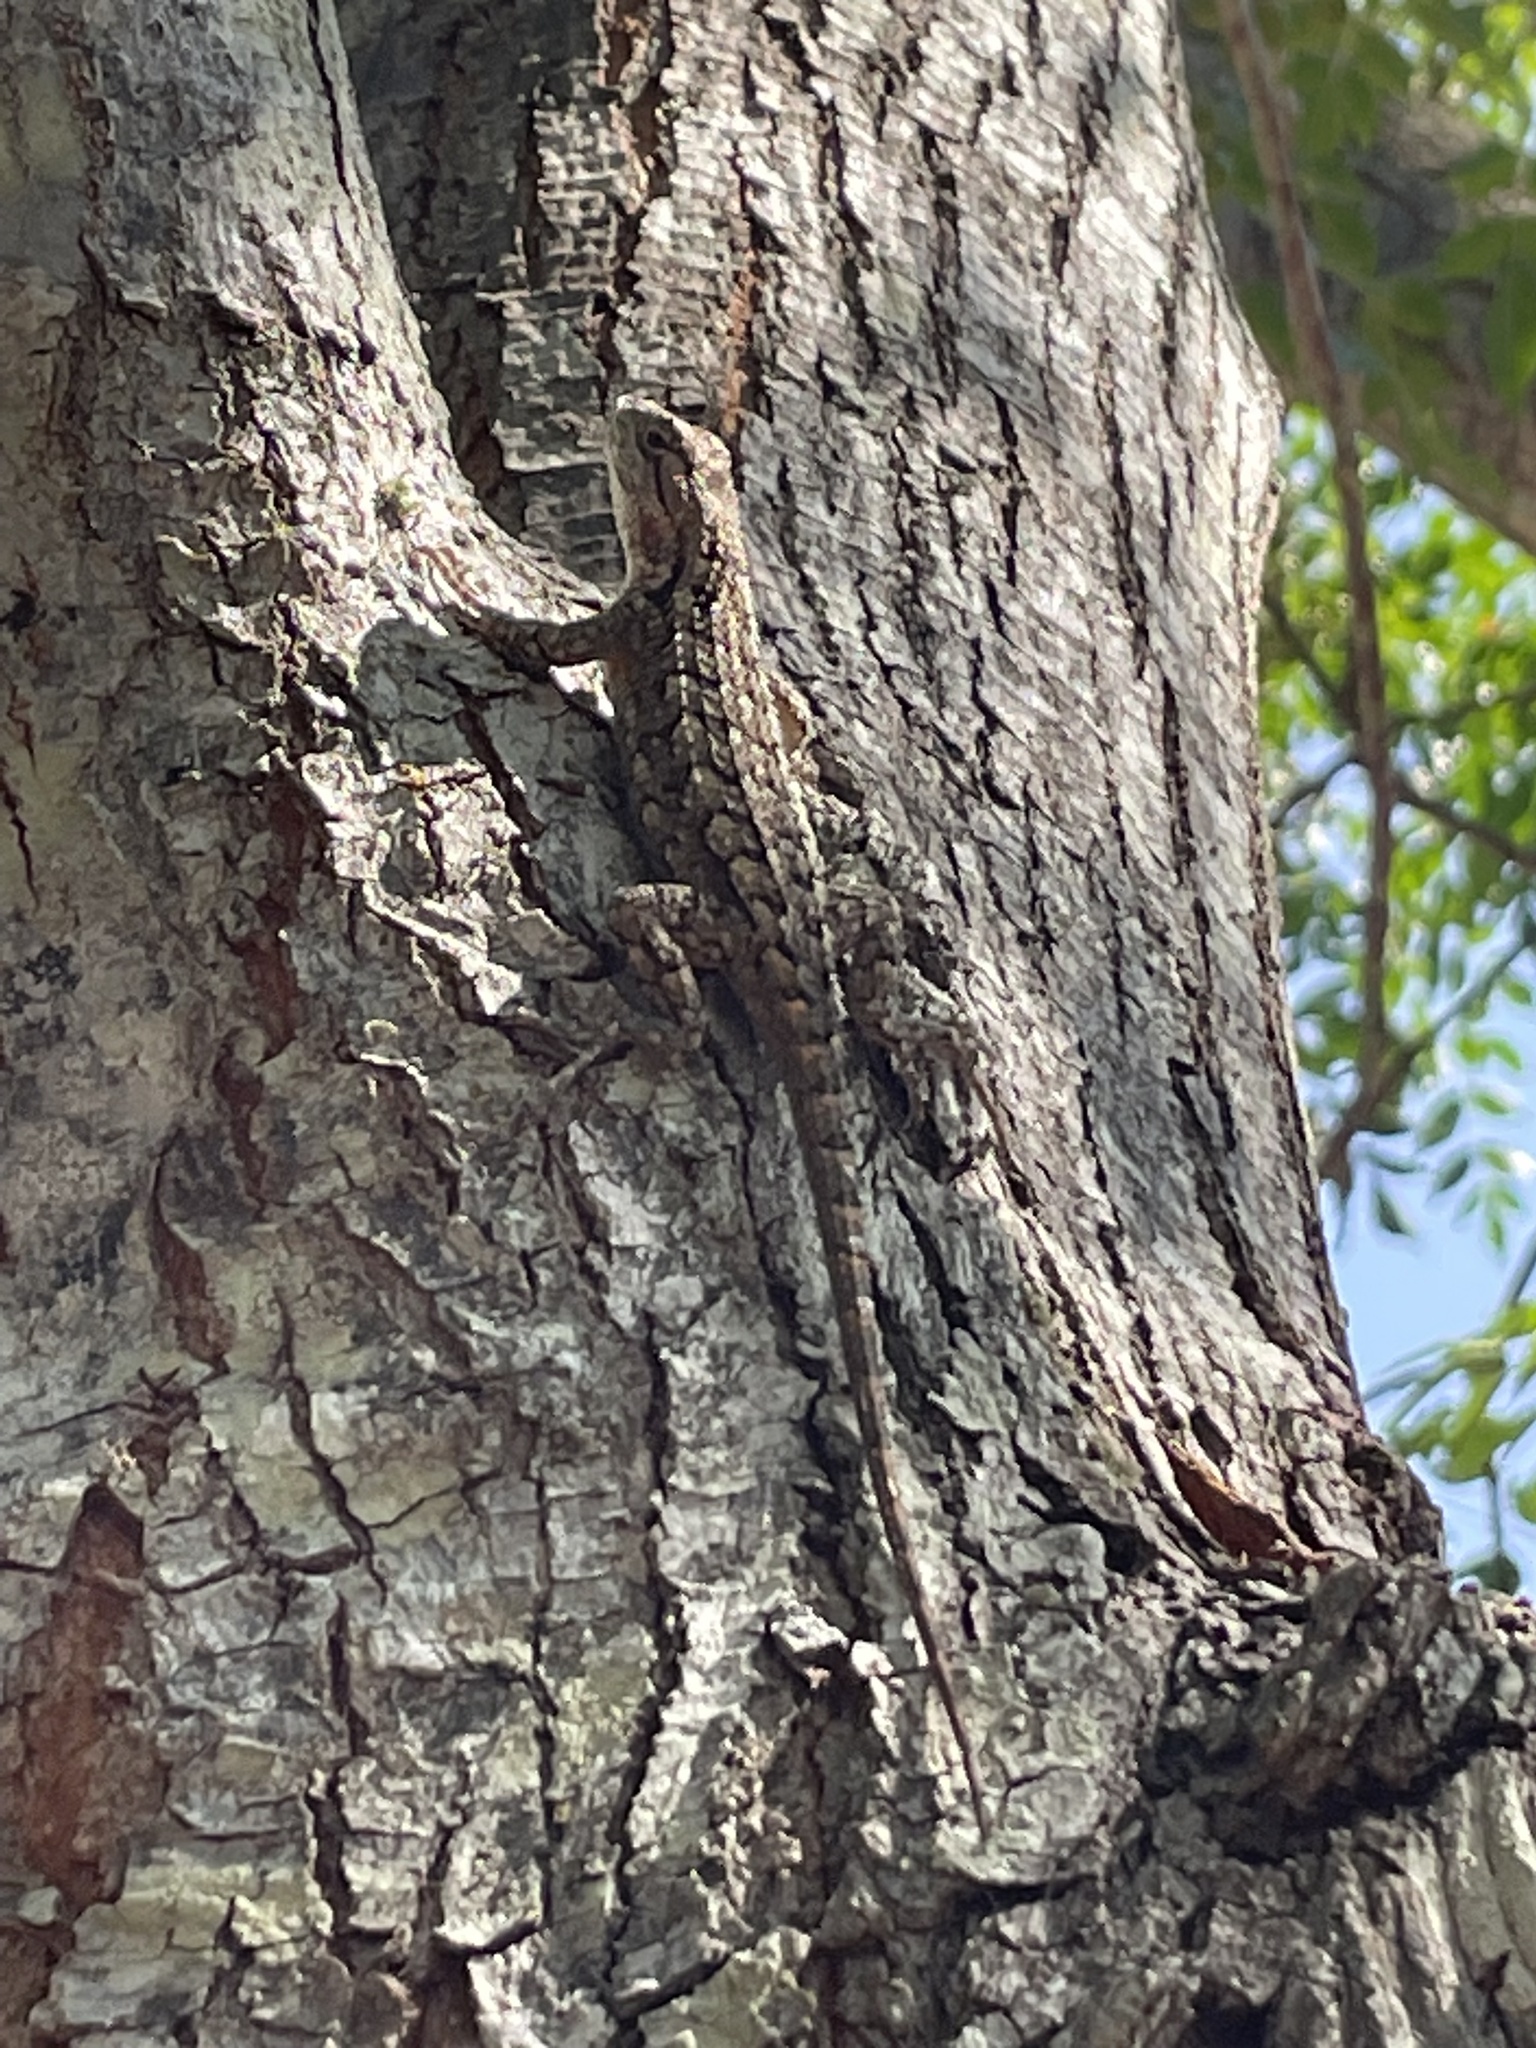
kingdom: Animalia
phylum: Chordata
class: Squamata
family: Phrynosomatidae
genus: Sceloporus
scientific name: Sceloporus olivaceus
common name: Texas spiny lizard
